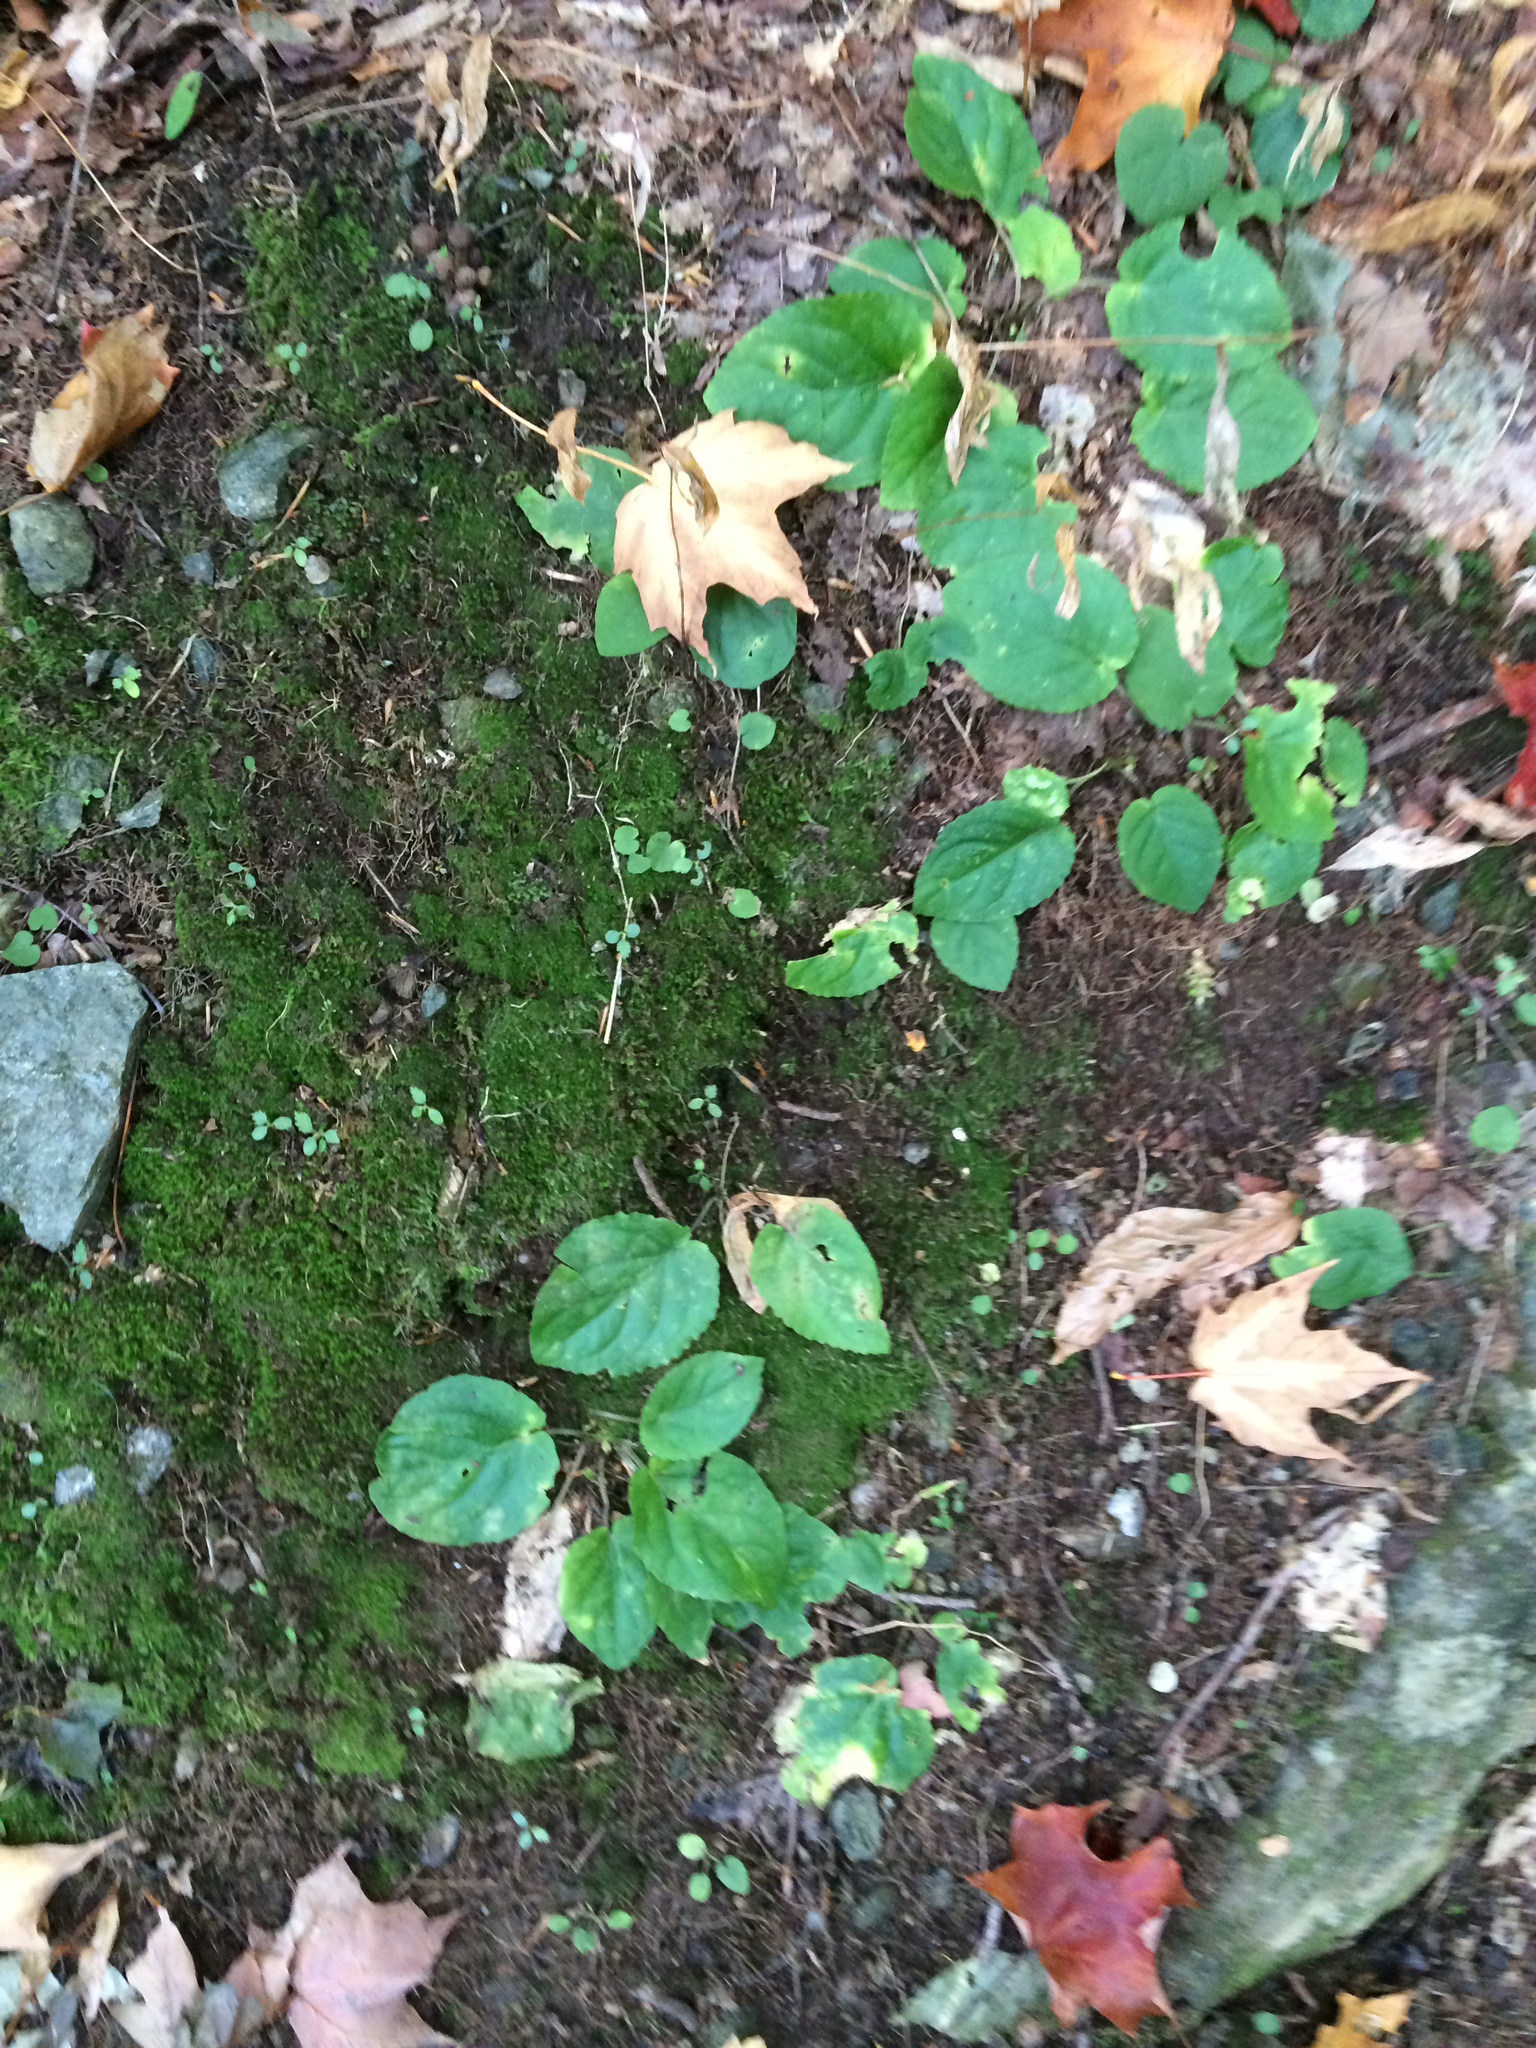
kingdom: Plantae
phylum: Tracheophyta
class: Magnoliopsida
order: Malpighiales
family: Violaceae
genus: Viola
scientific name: Viola rotundifolia
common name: Early yellow violet
